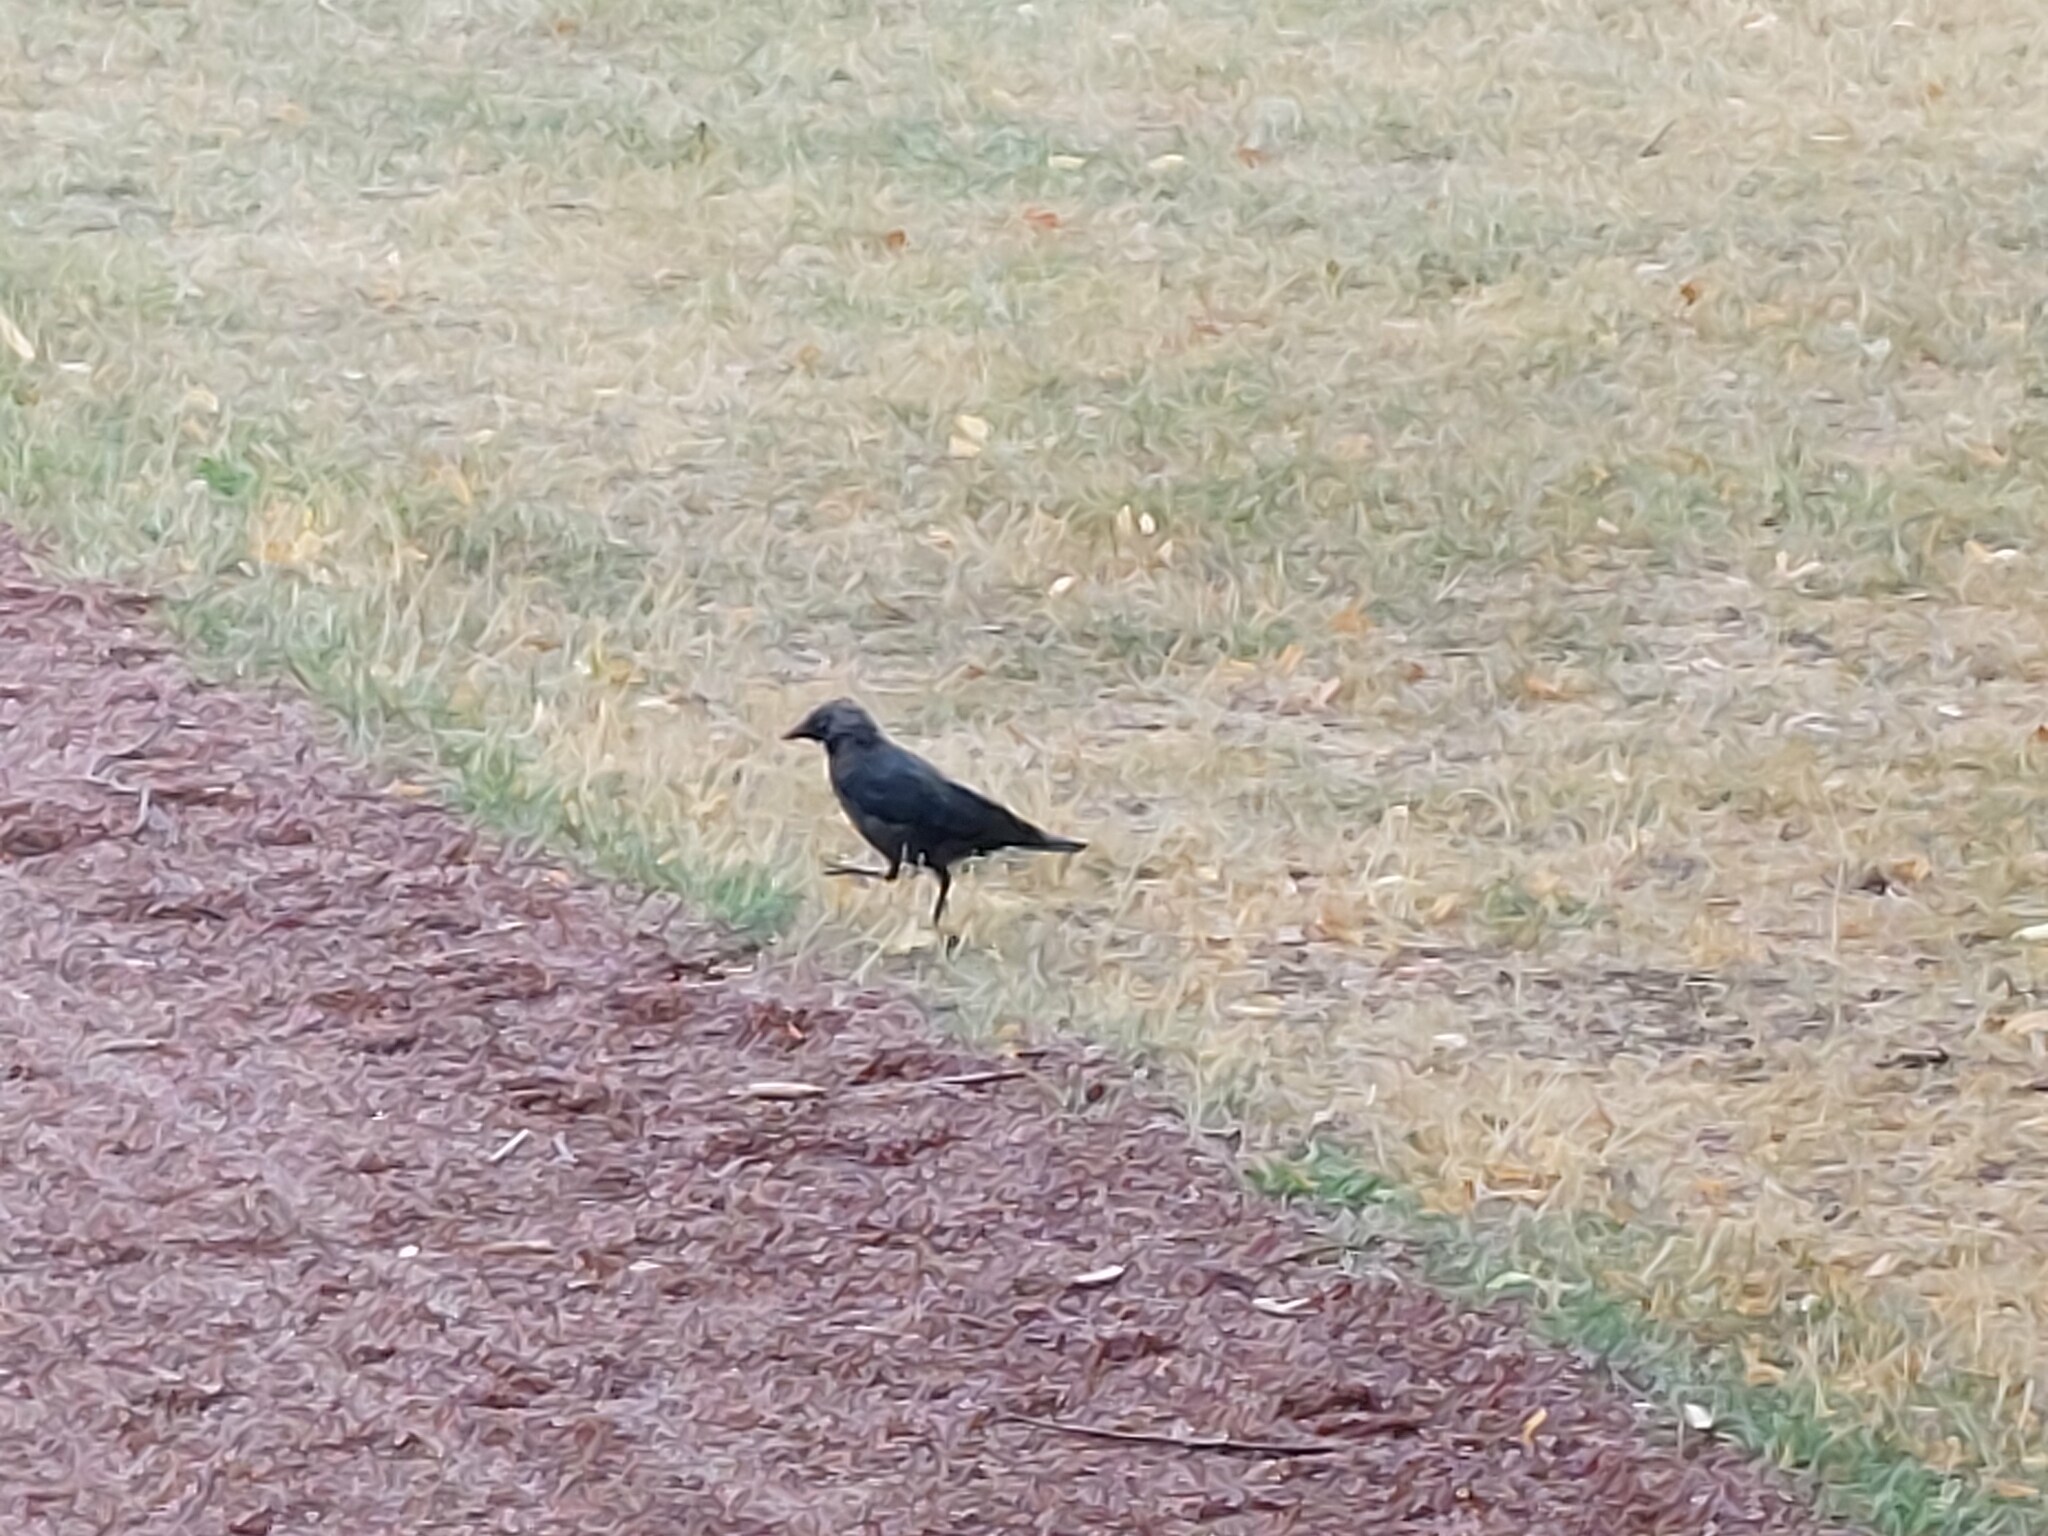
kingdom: Animalia
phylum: Chordata
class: Aves
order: Passeriformes
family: Corvidae
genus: Coloeus
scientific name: Coloeus monedula
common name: Western jackdaw
